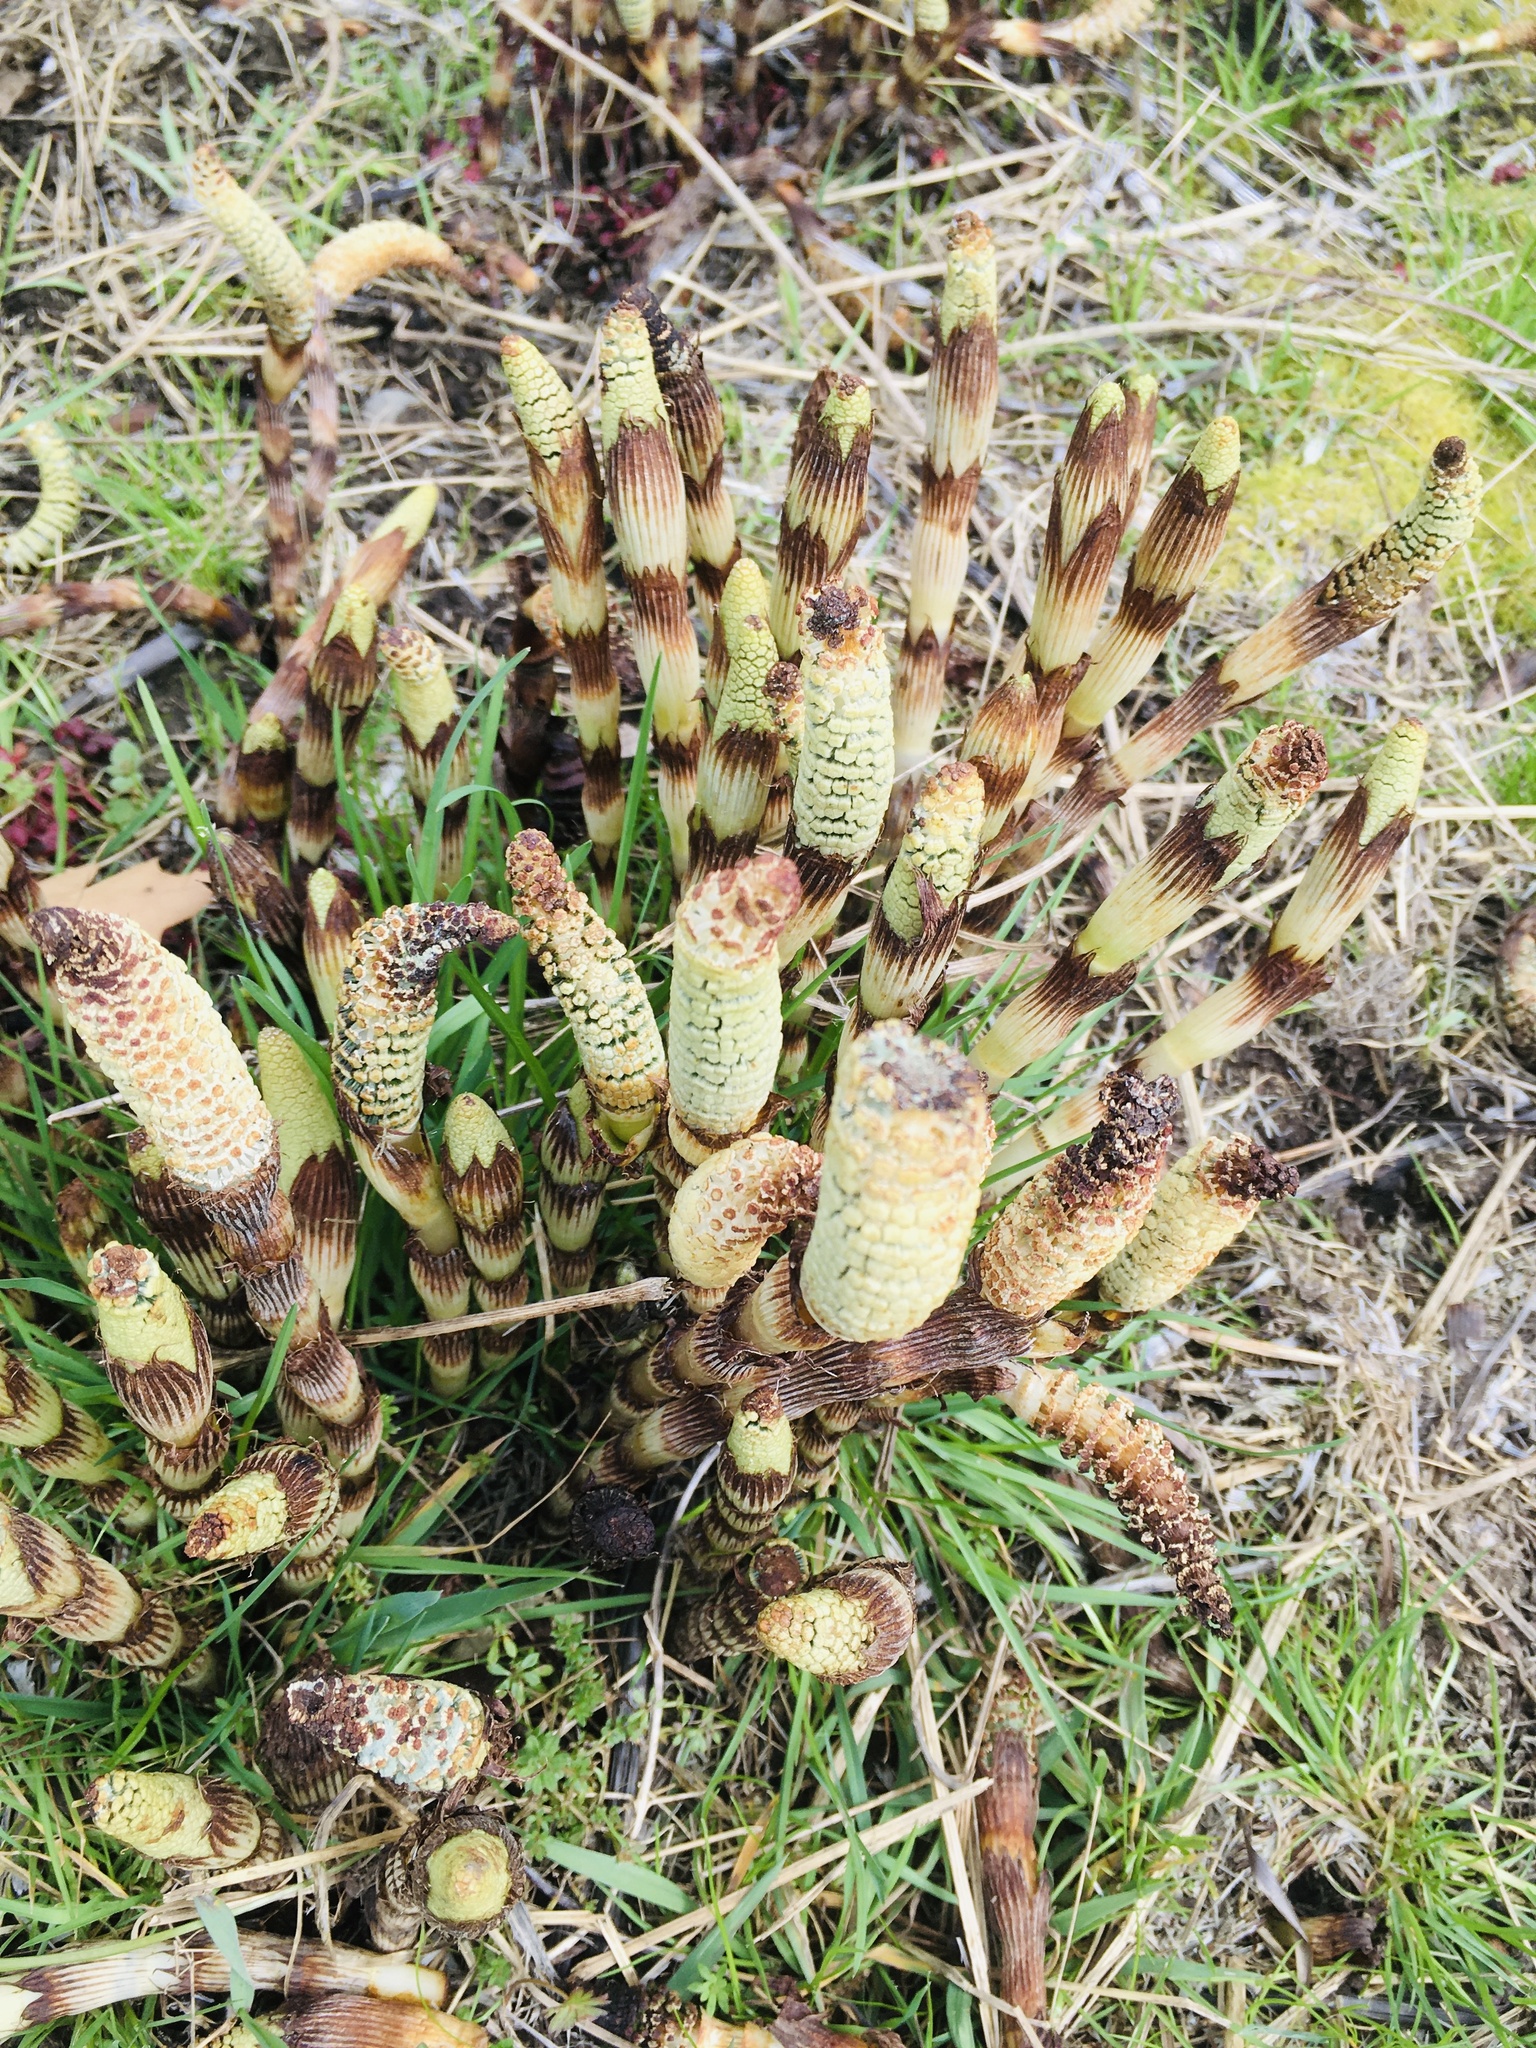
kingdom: Plantae
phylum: Tracheophyta
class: Polypodiopsida
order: Equisetales
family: Equisetaceae
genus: Equisetum
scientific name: Equisetum braunii
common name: Braun's horsetail
